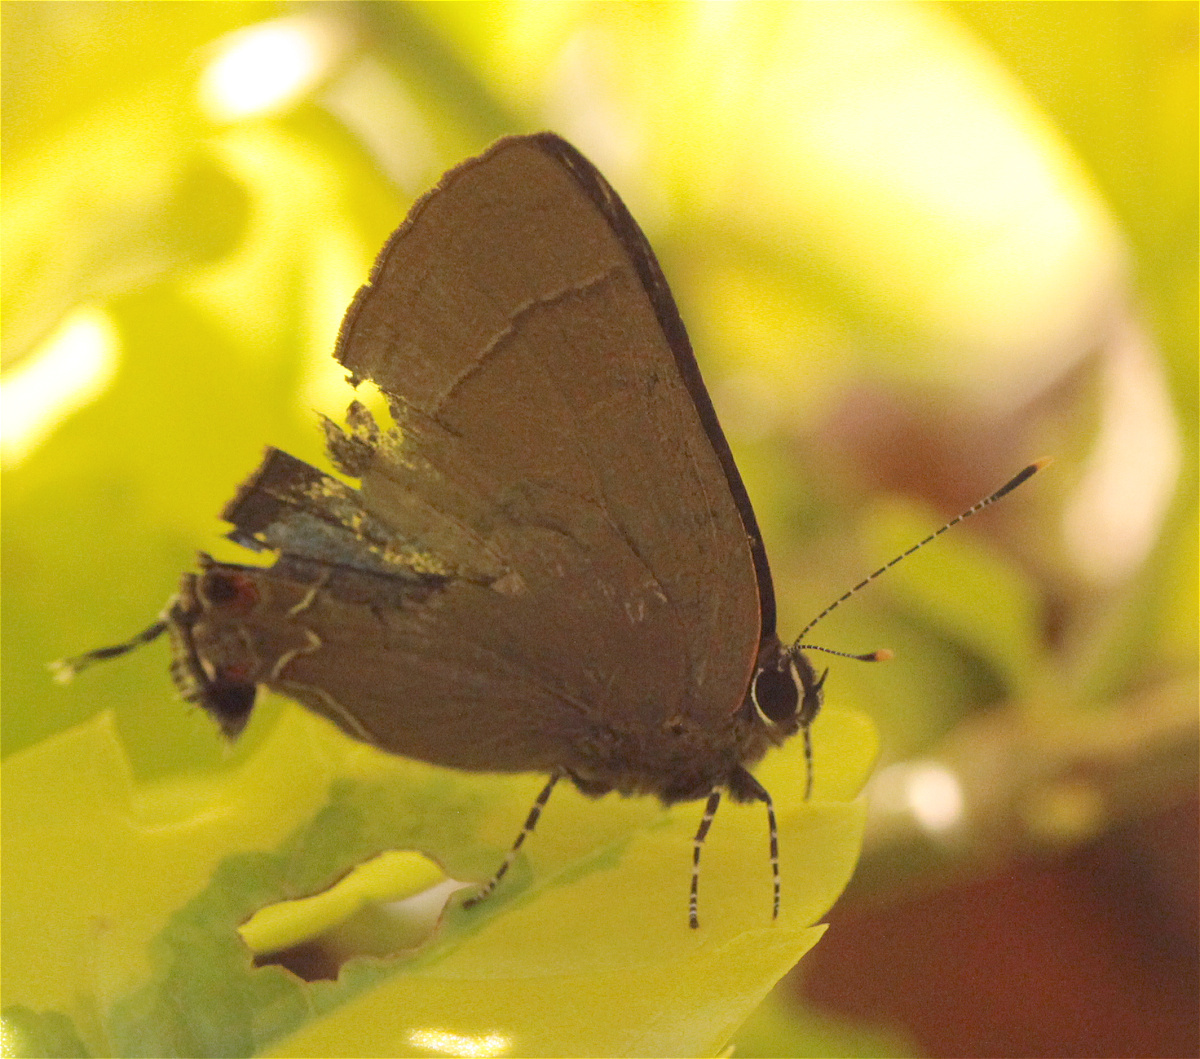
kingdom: Animalia
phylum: Arthropoda
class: Insecta
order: Lepidoptera
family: Lycaenidae
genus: Ziegleria
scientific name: Ziegleria hesperitis
